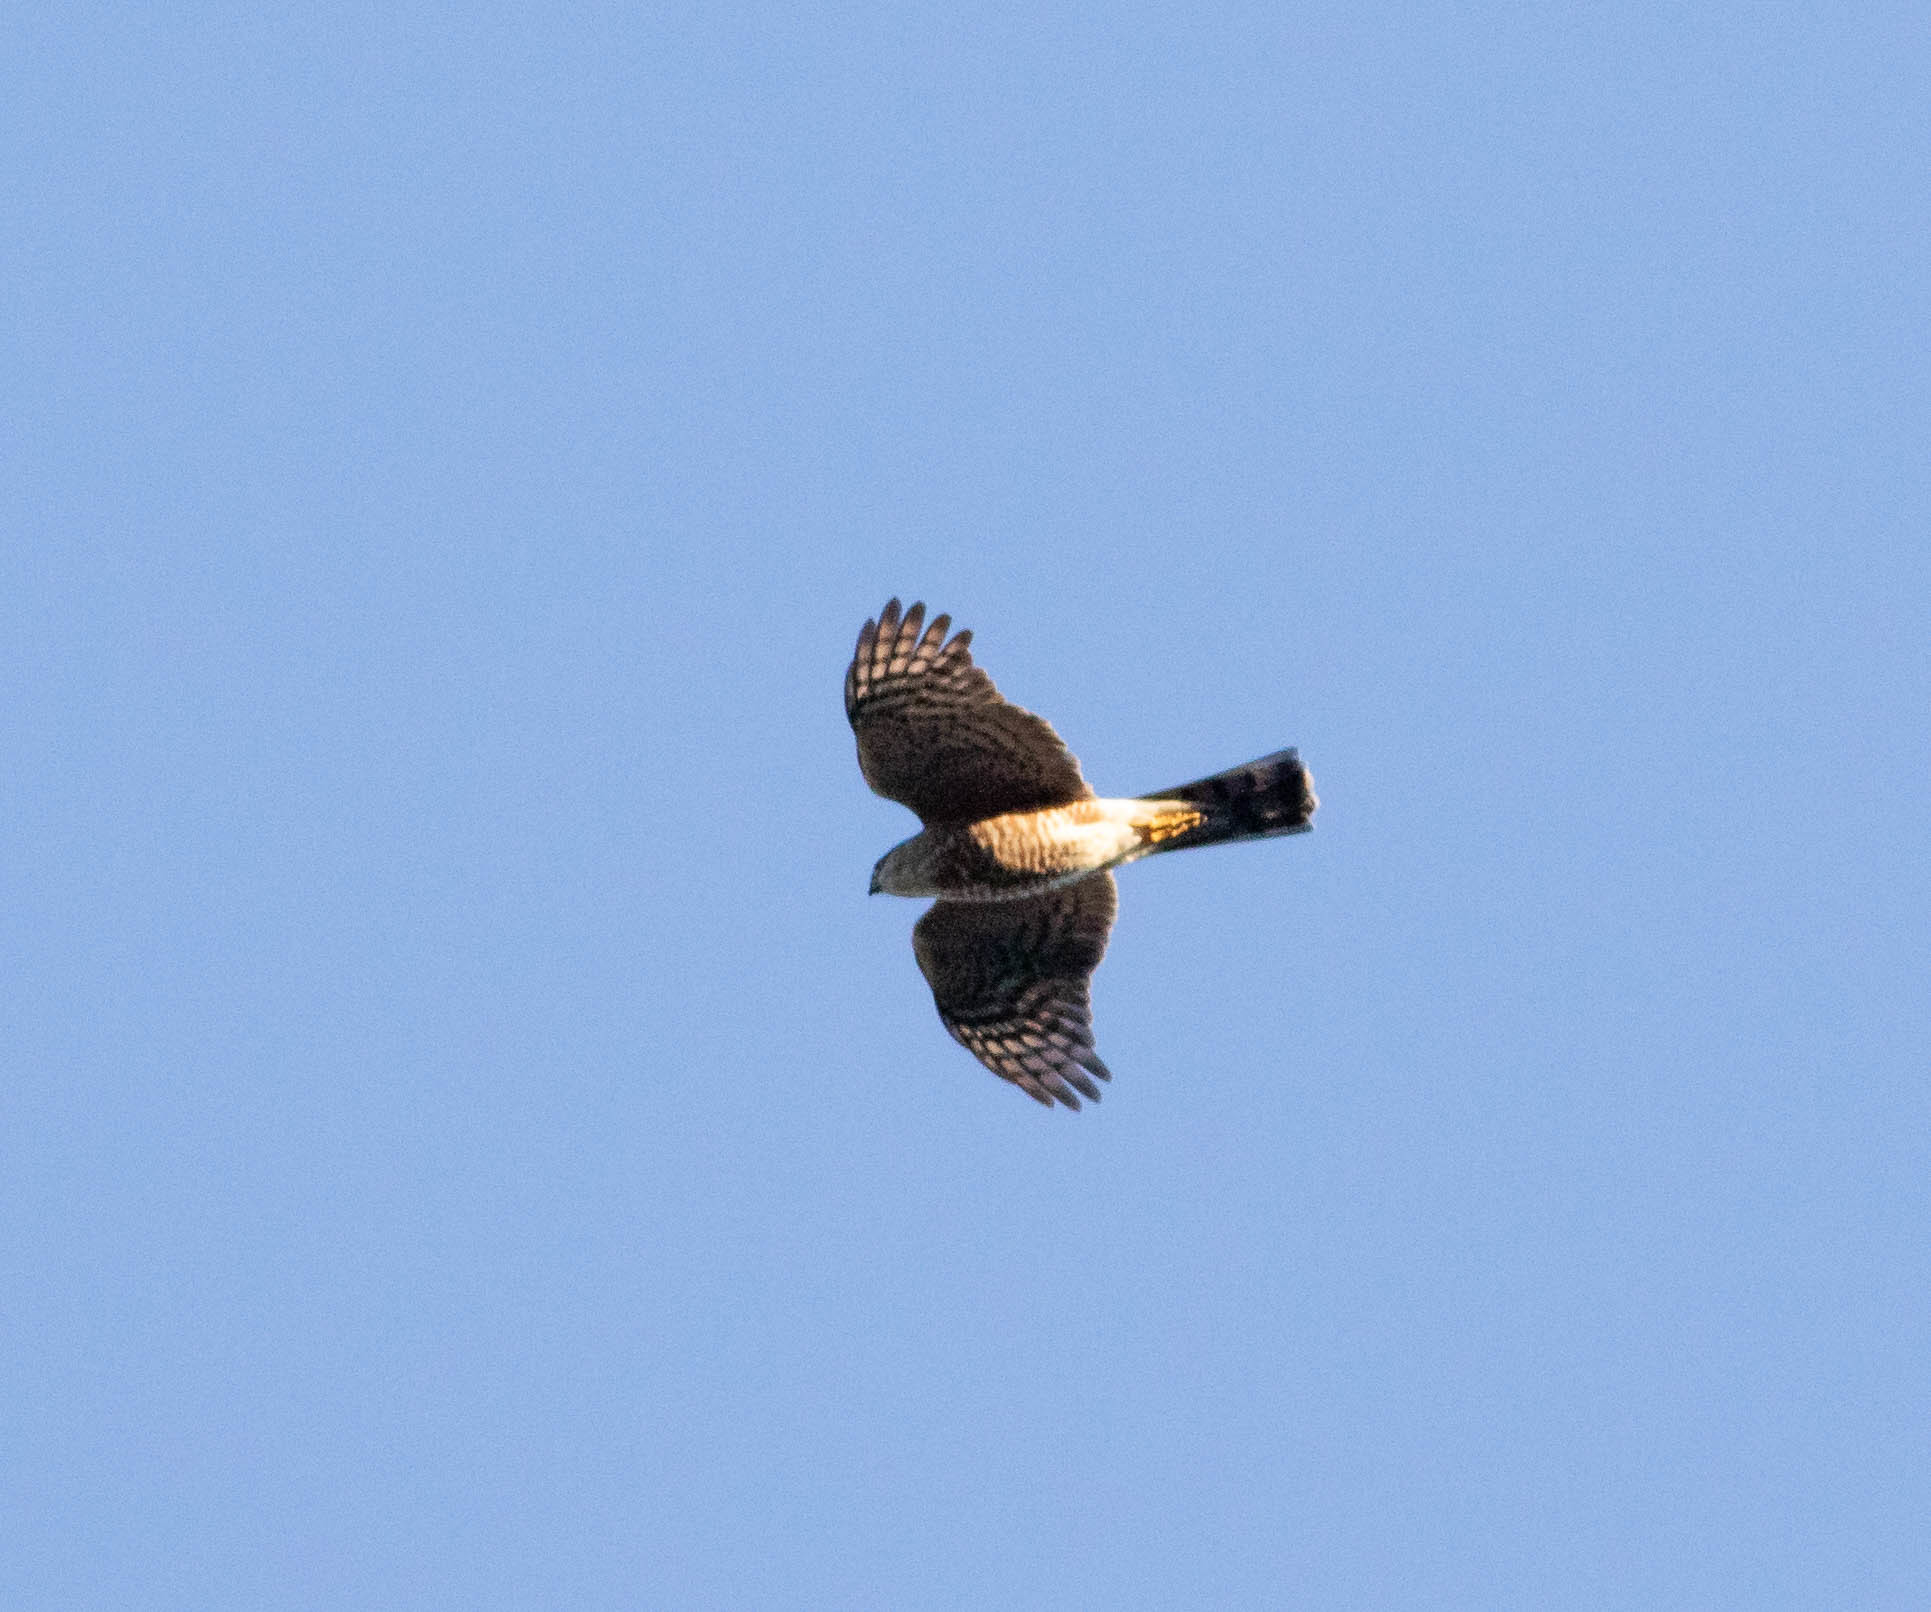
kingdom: Animalia
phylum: Chordata
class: Aves
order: Accipitriformes
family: Accipitridae
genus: Accipiter
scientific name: Accipiter striatus
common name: Sharp-shinned hawk
